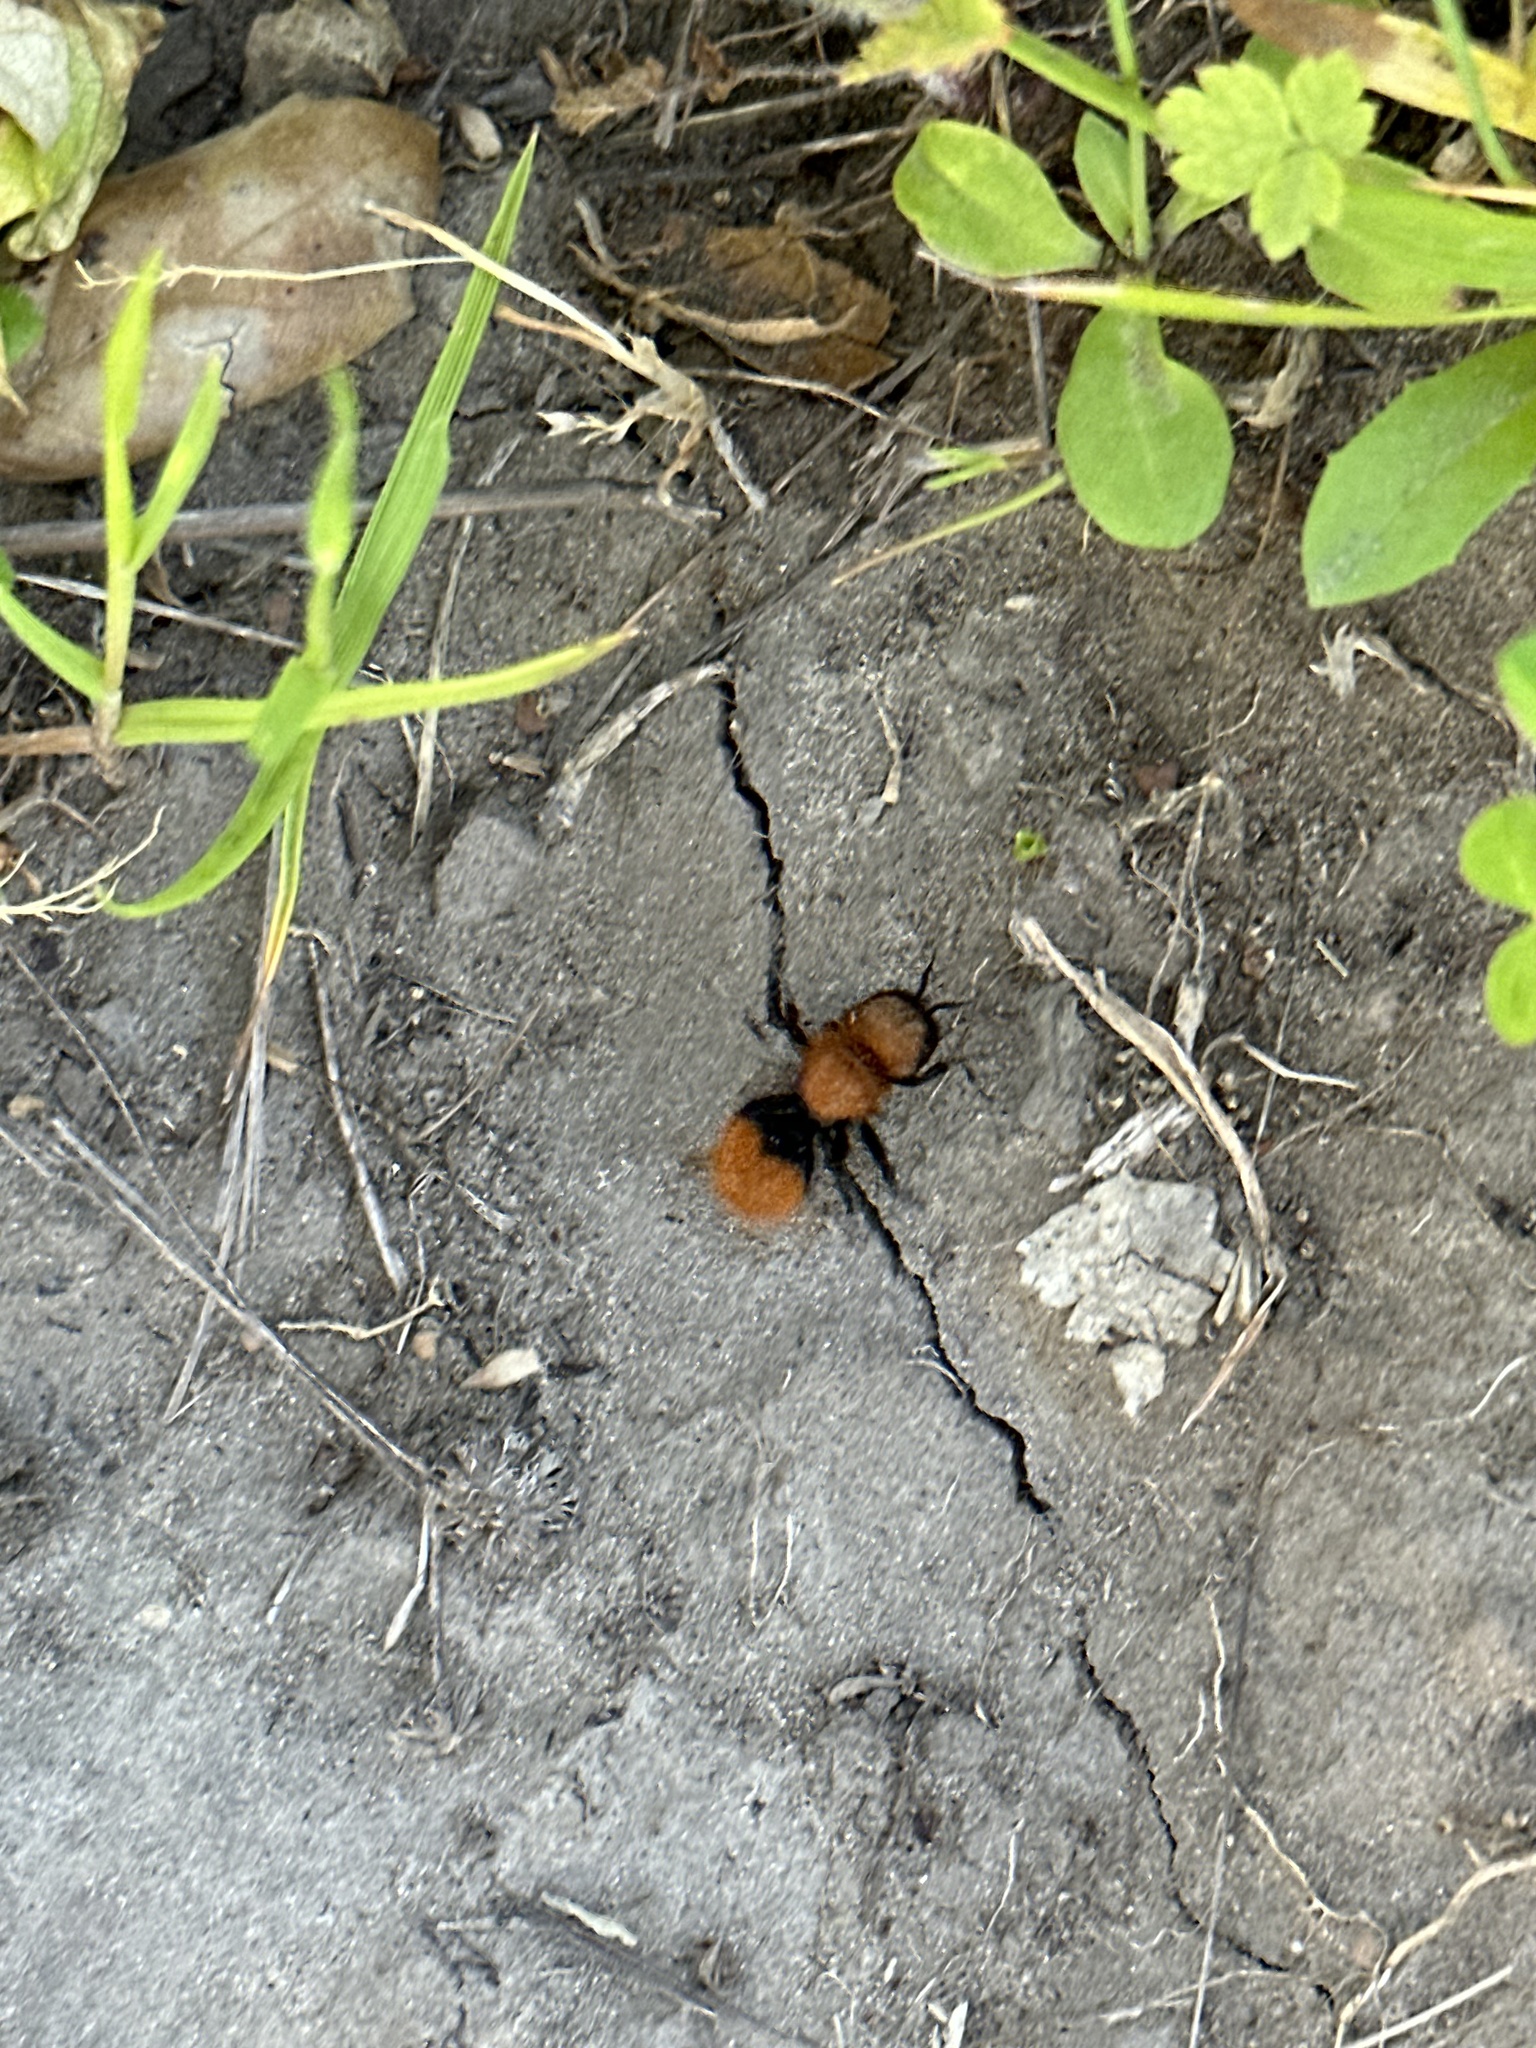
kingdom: Animalia
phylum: Arthropoda
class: Insecta
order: Hymenoptera
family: Mutillidae
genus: Dasymutilla
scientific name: Dasymutilla
